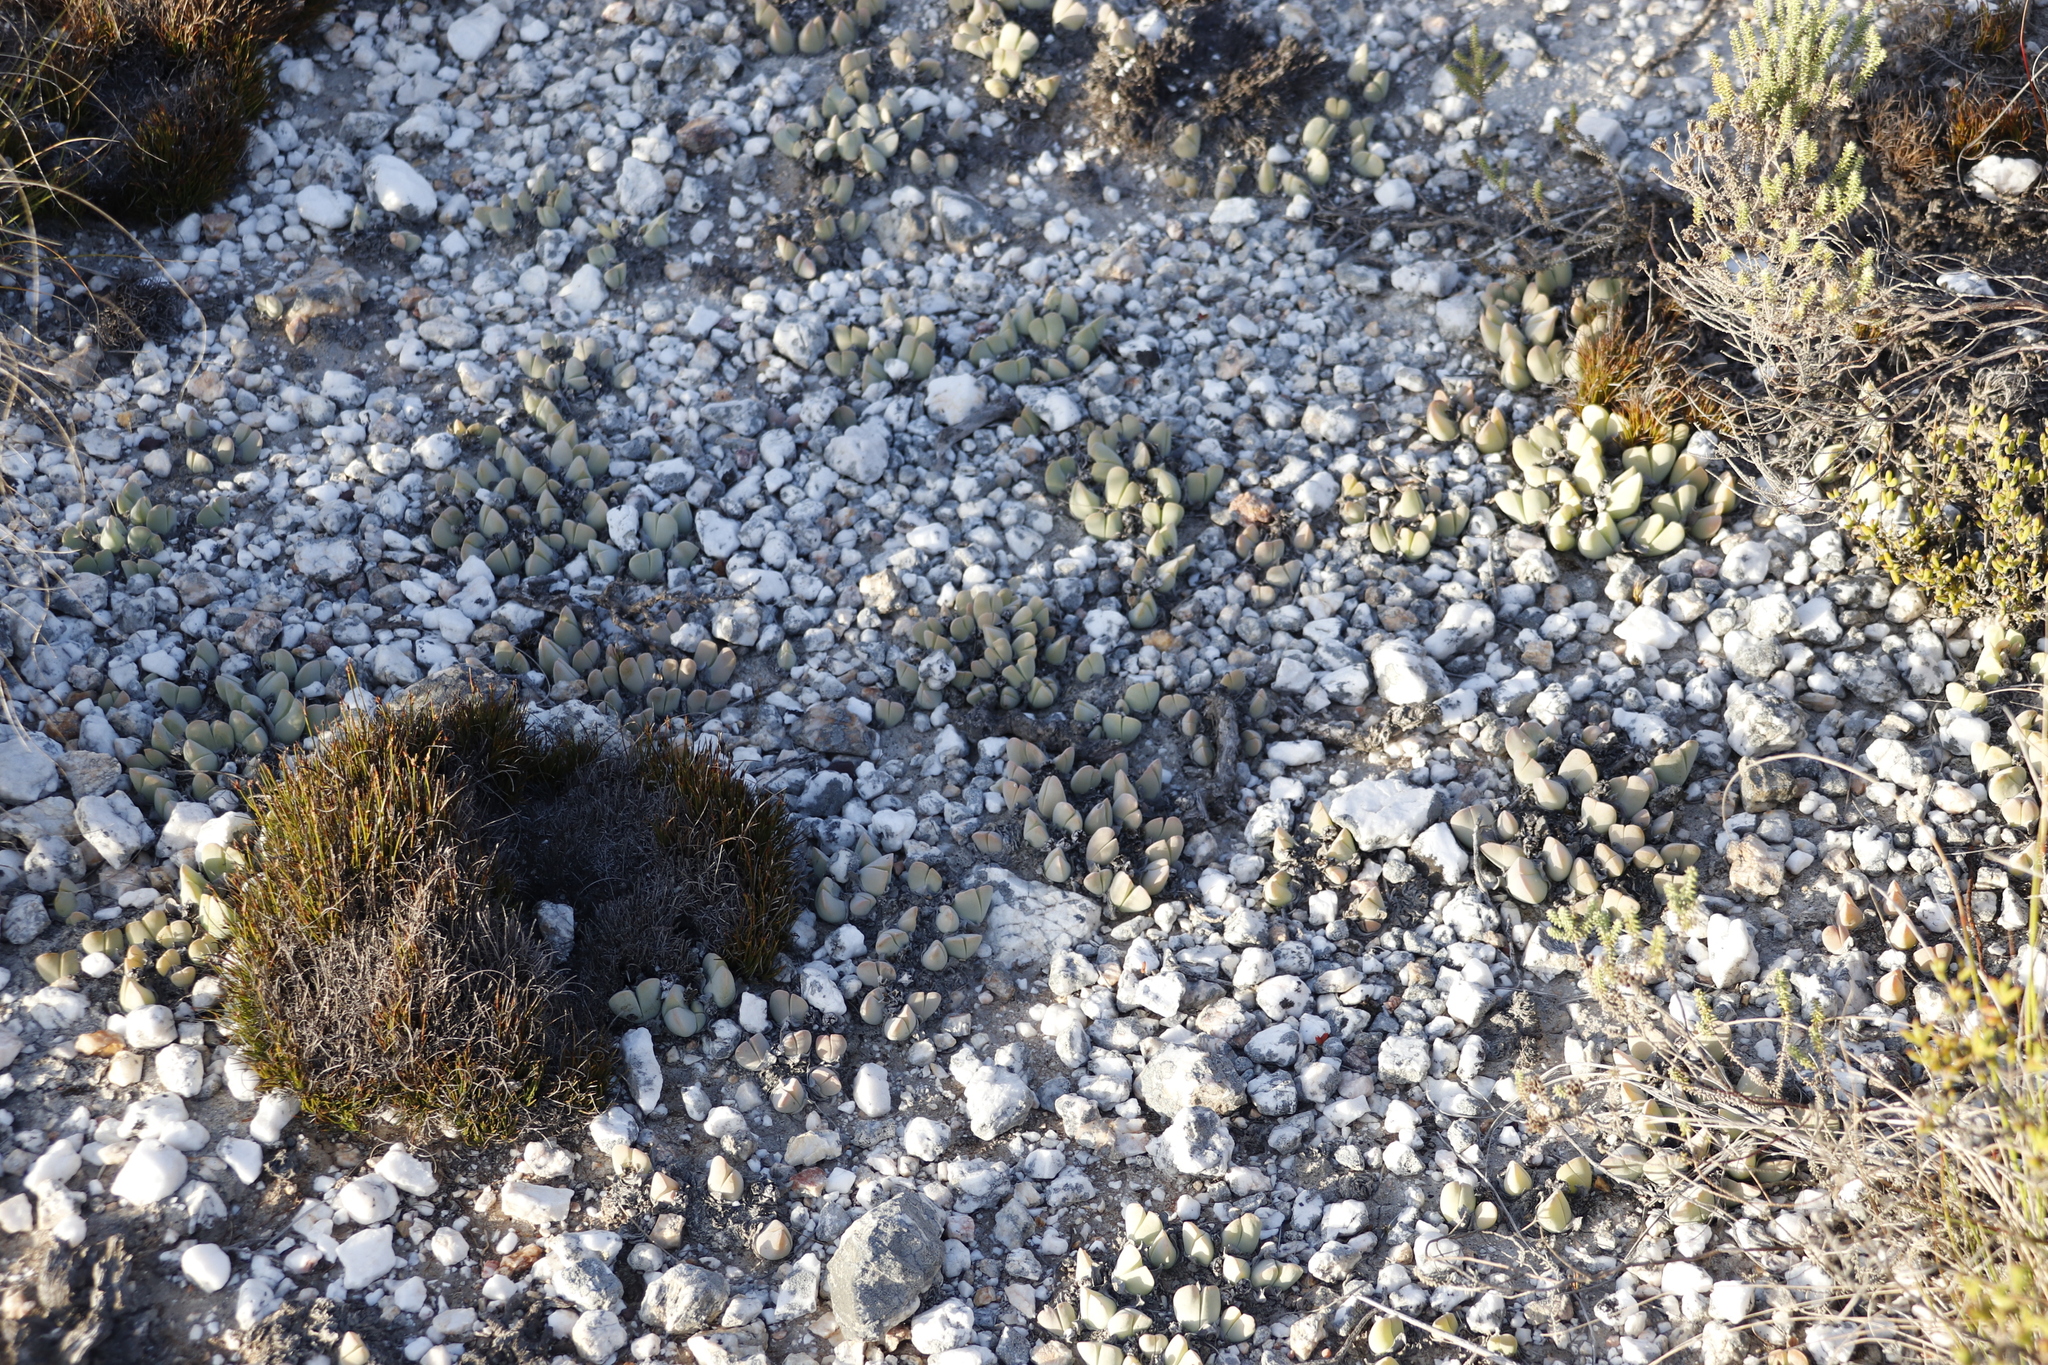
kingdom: Plantae
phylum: Tracheophyta
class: Magnoliopsida
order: Caryophyllales
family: Aizoaceae
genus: Gibbaeum
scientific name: Gibbaeum hartmannianum
